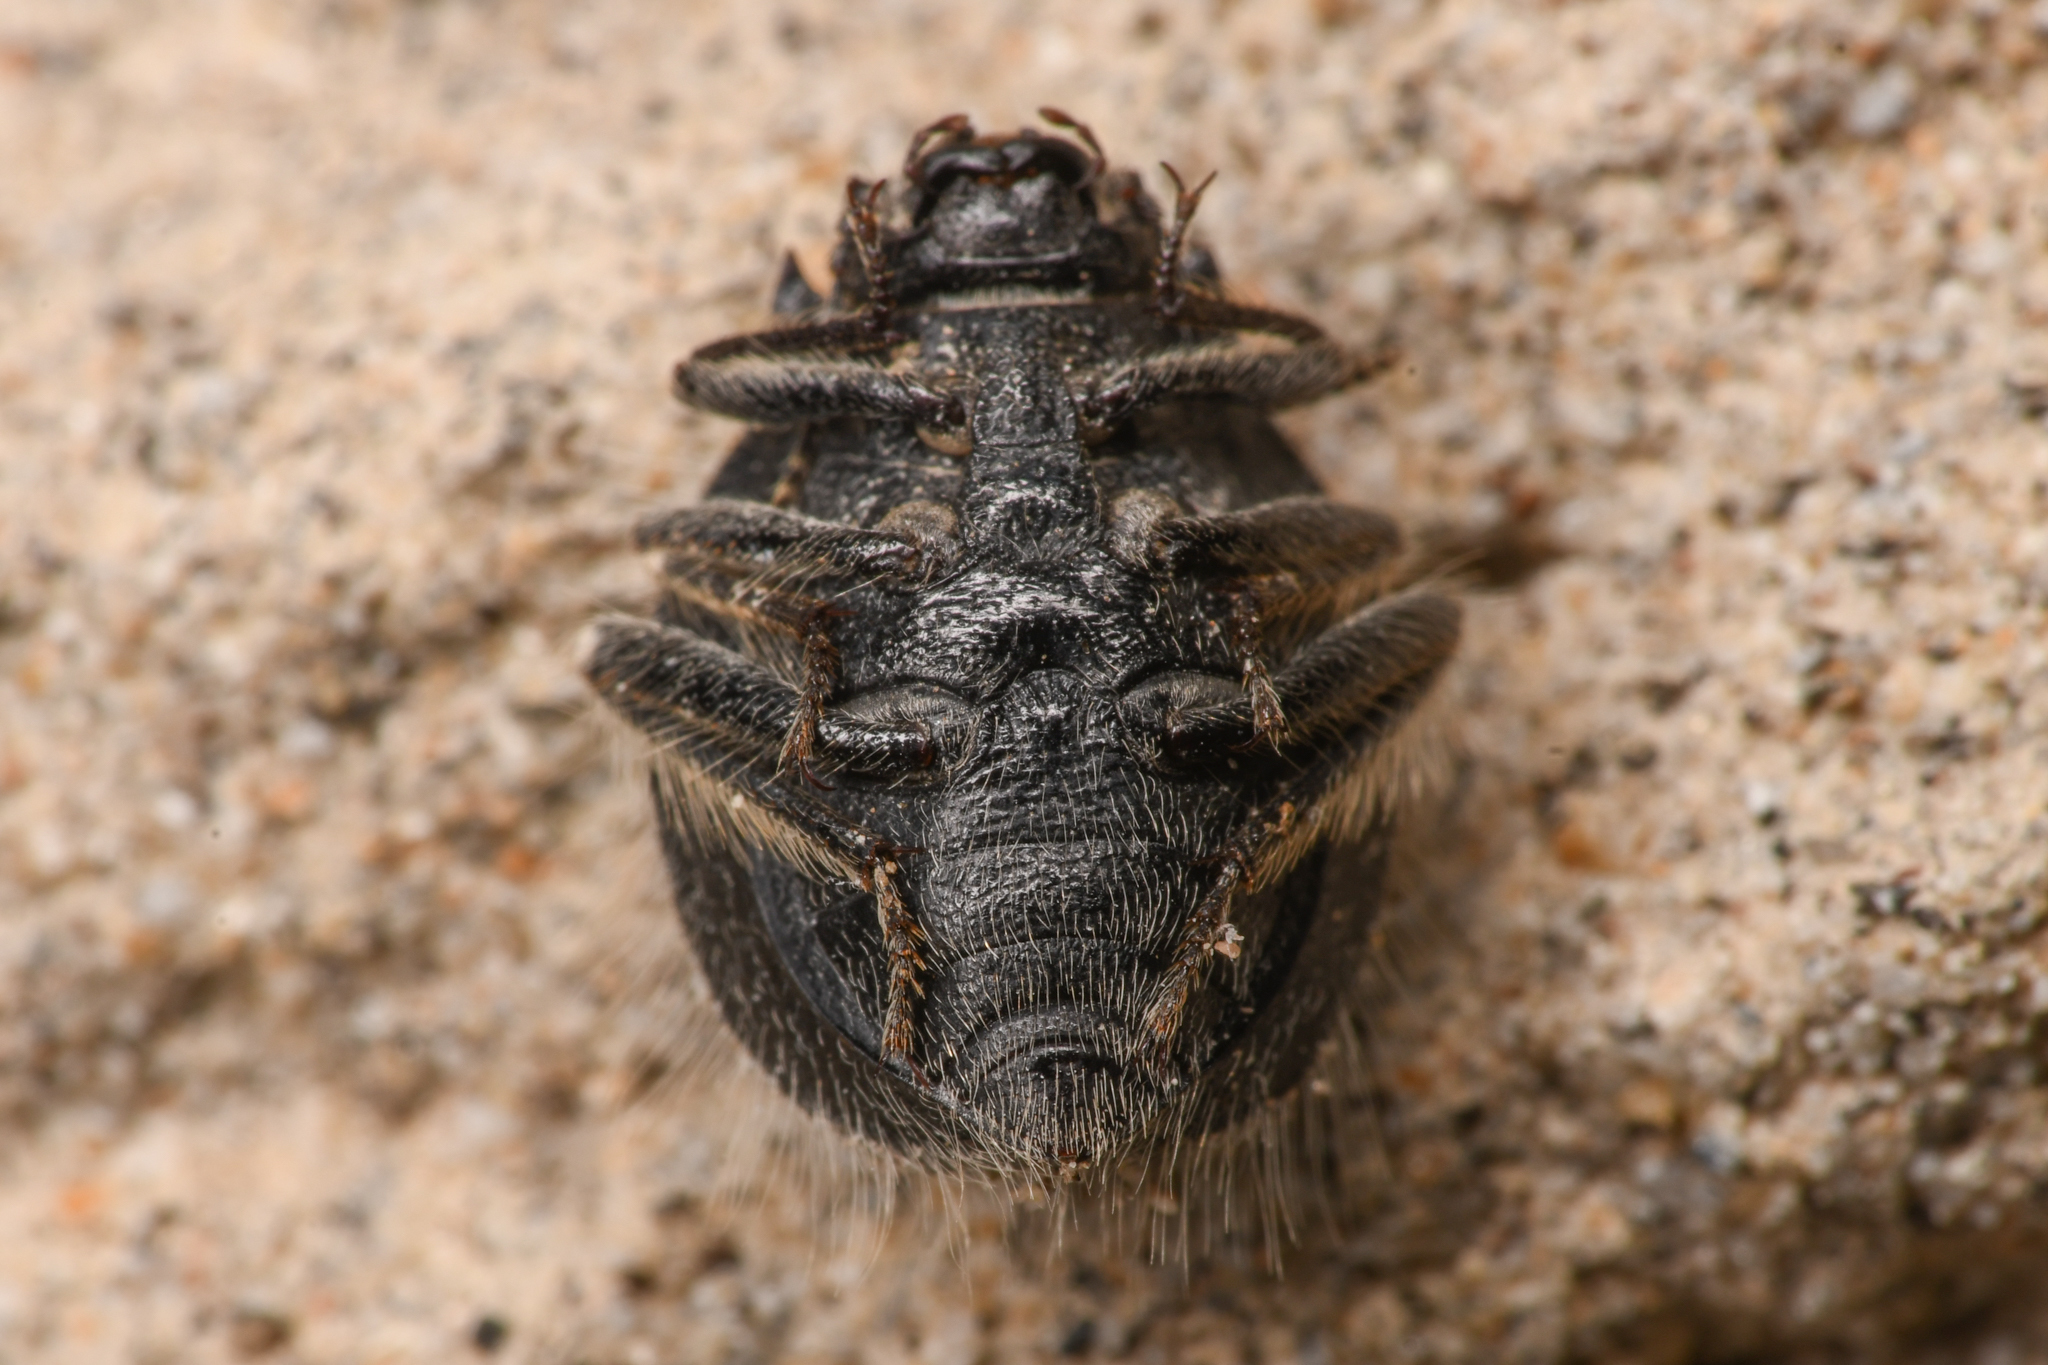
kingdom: Animalia
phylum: Arthropoda
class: Insecta
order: Coleoptera
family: Tenebrionidae
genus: Edrotes
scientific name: Edrotes ventricosus
